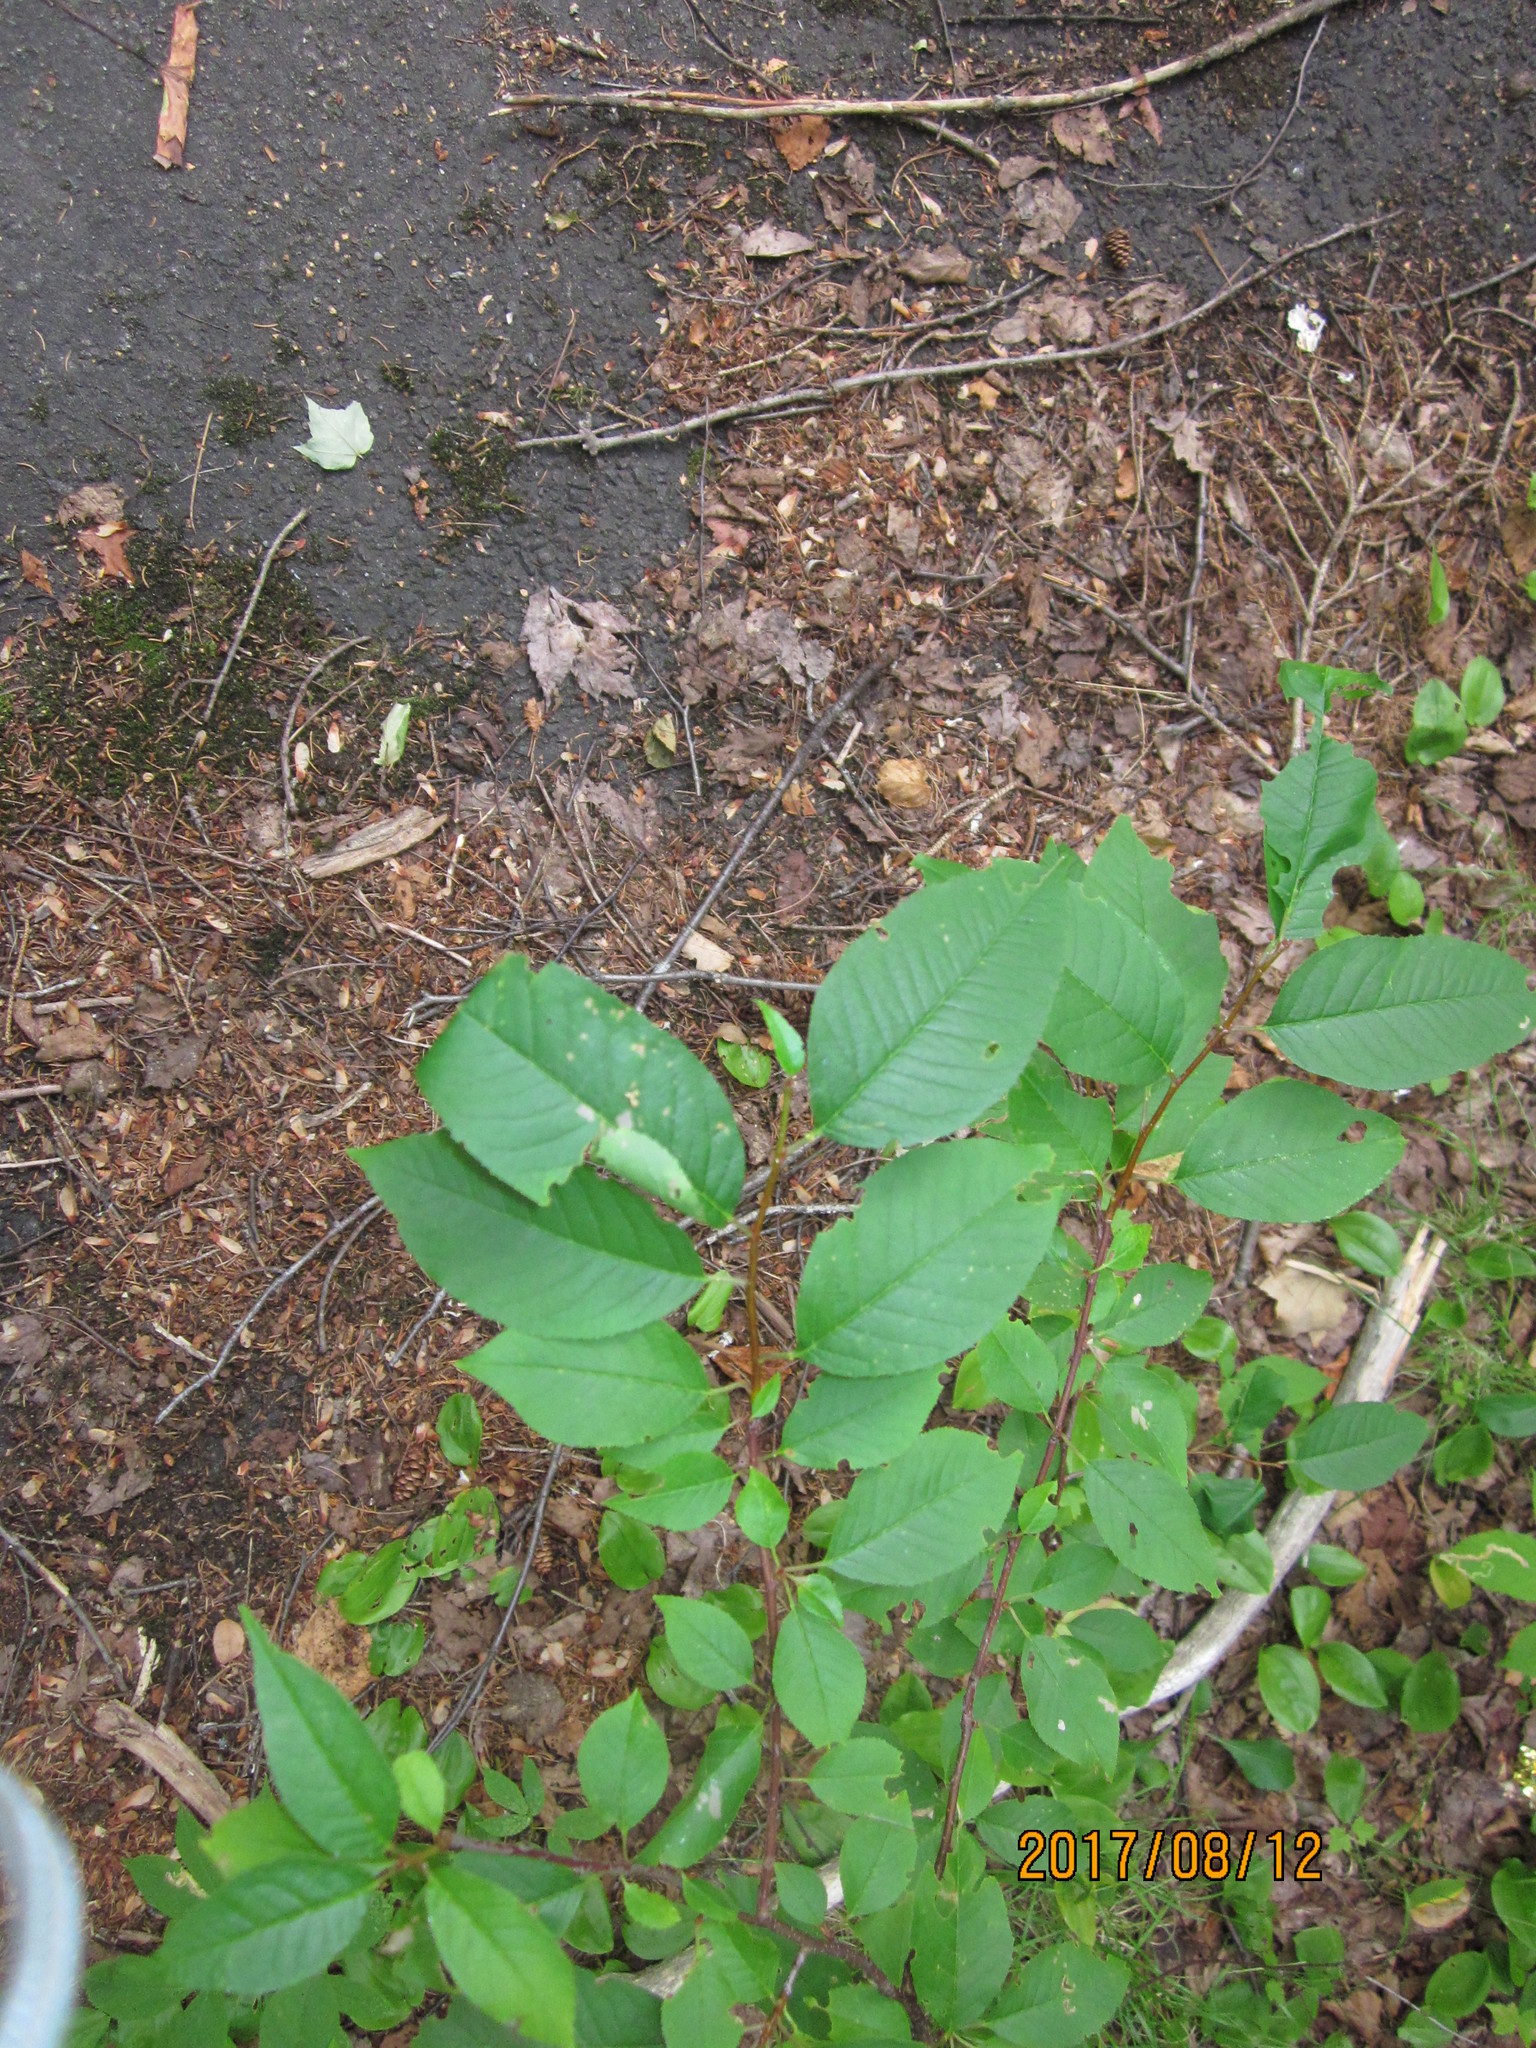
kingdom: Plantae
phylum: Tracheophyta
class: Magnoliopsida
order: Rosales
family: Rosaceae
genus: Prunus
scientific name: Prunus pensylvanica
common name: Pin cherry
